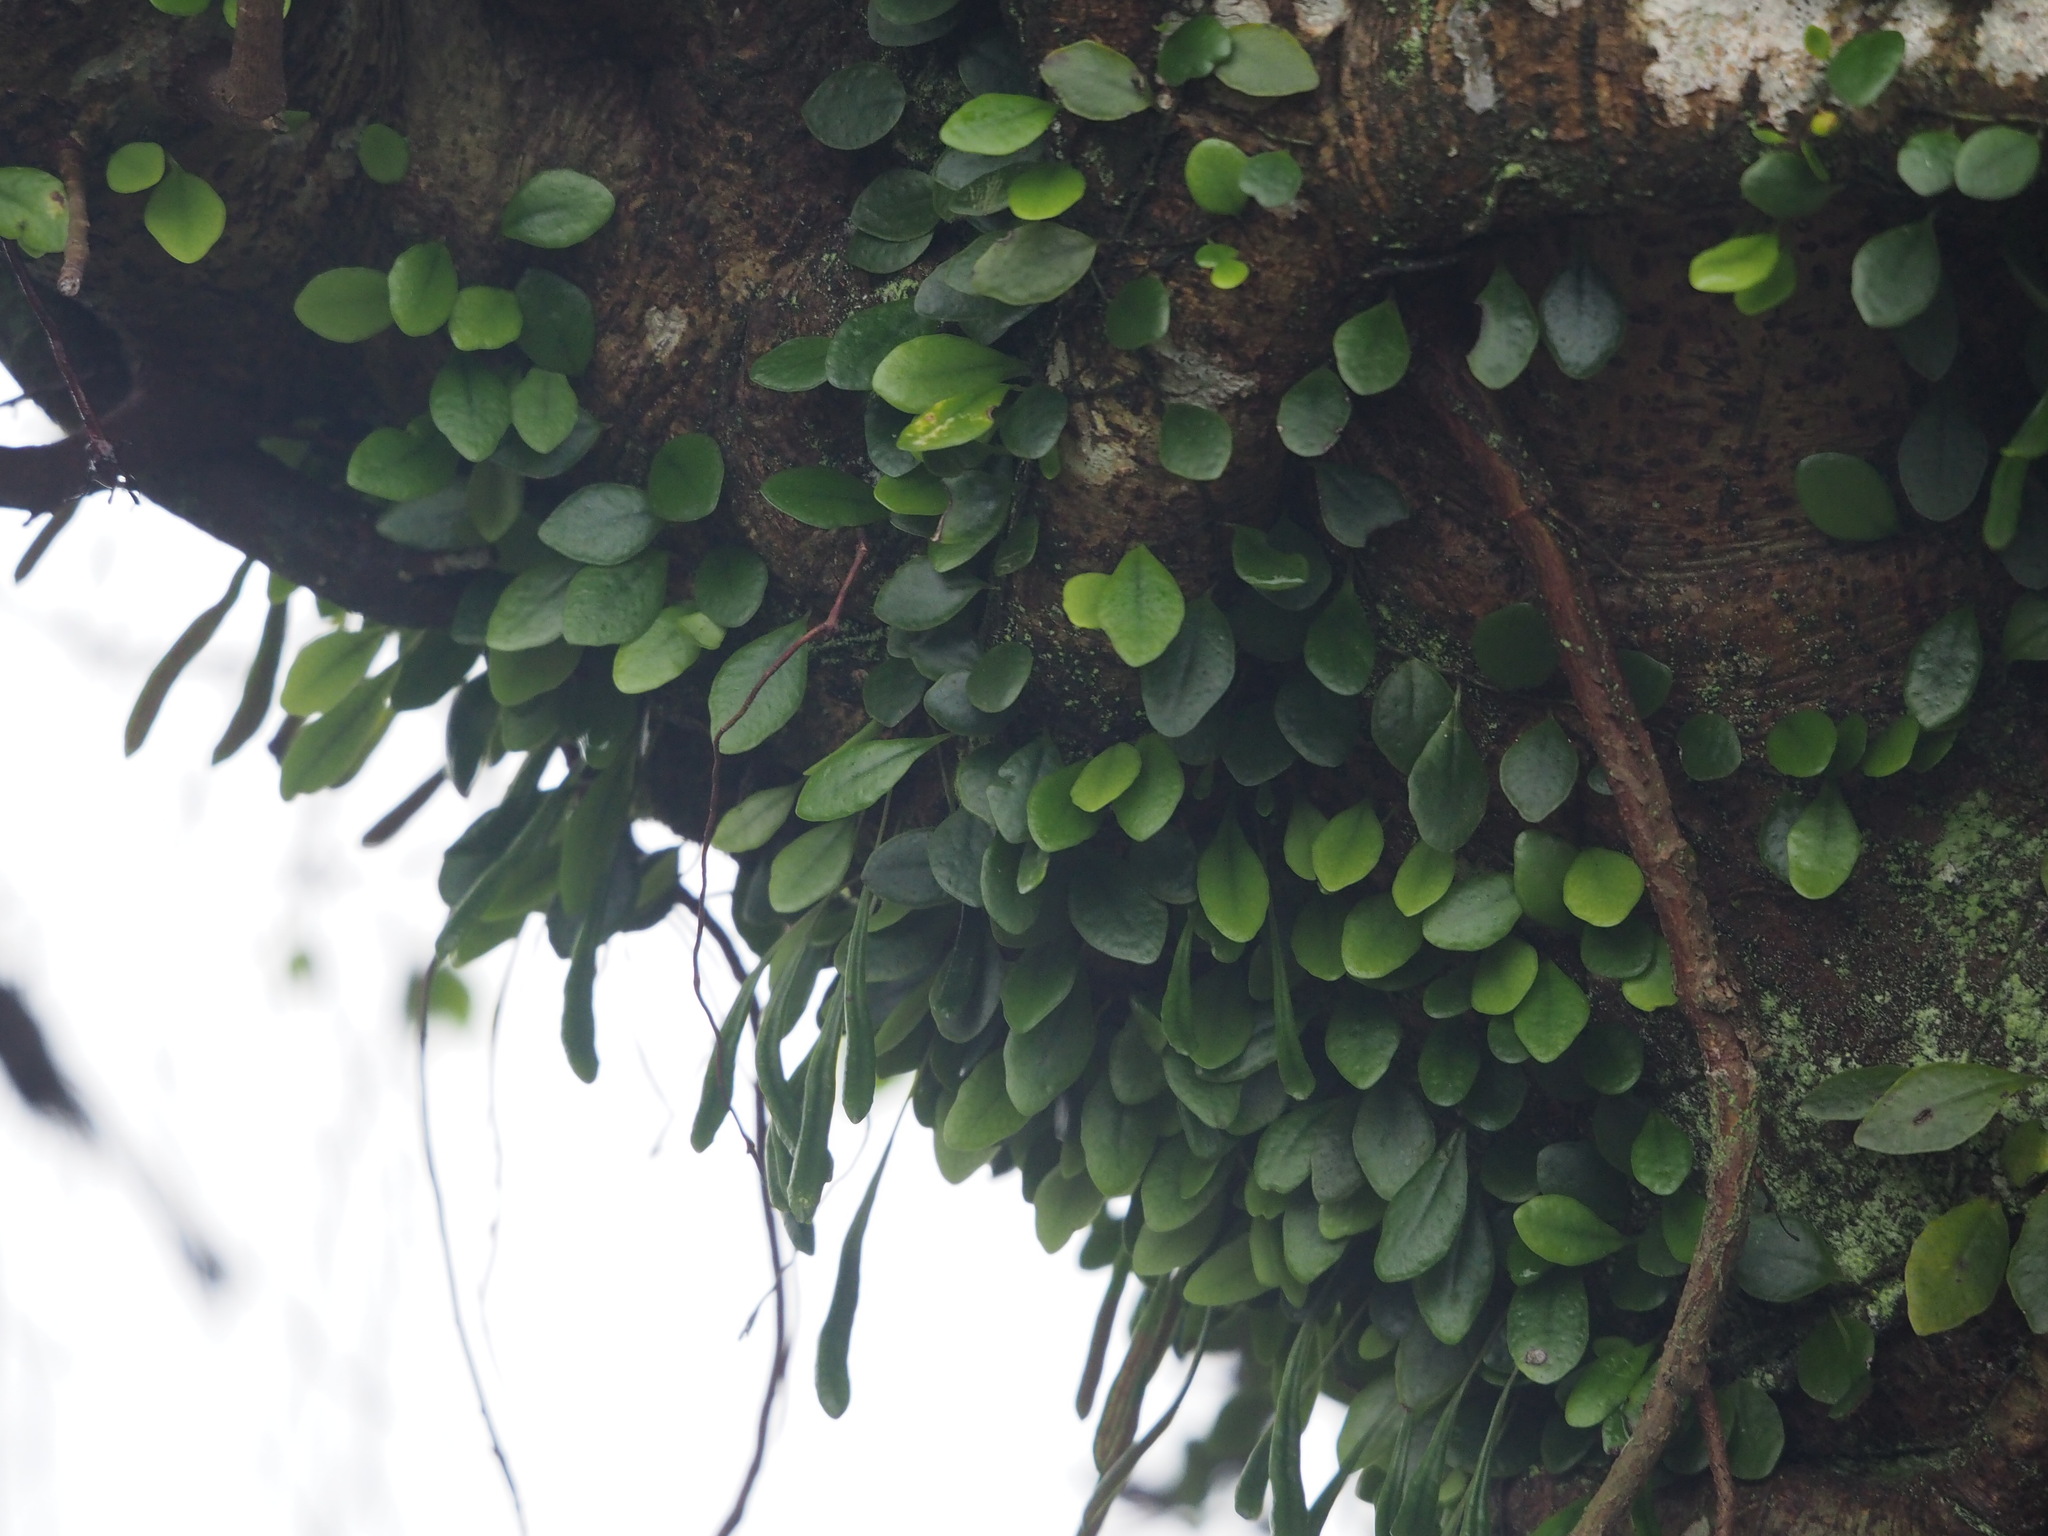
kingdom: Plantae
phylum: Tracheophyta
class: Polypodiopsida
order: Polypodiales
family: Polypodiaceae
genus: Lepisorus
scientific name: Lepisorus microphyllus
